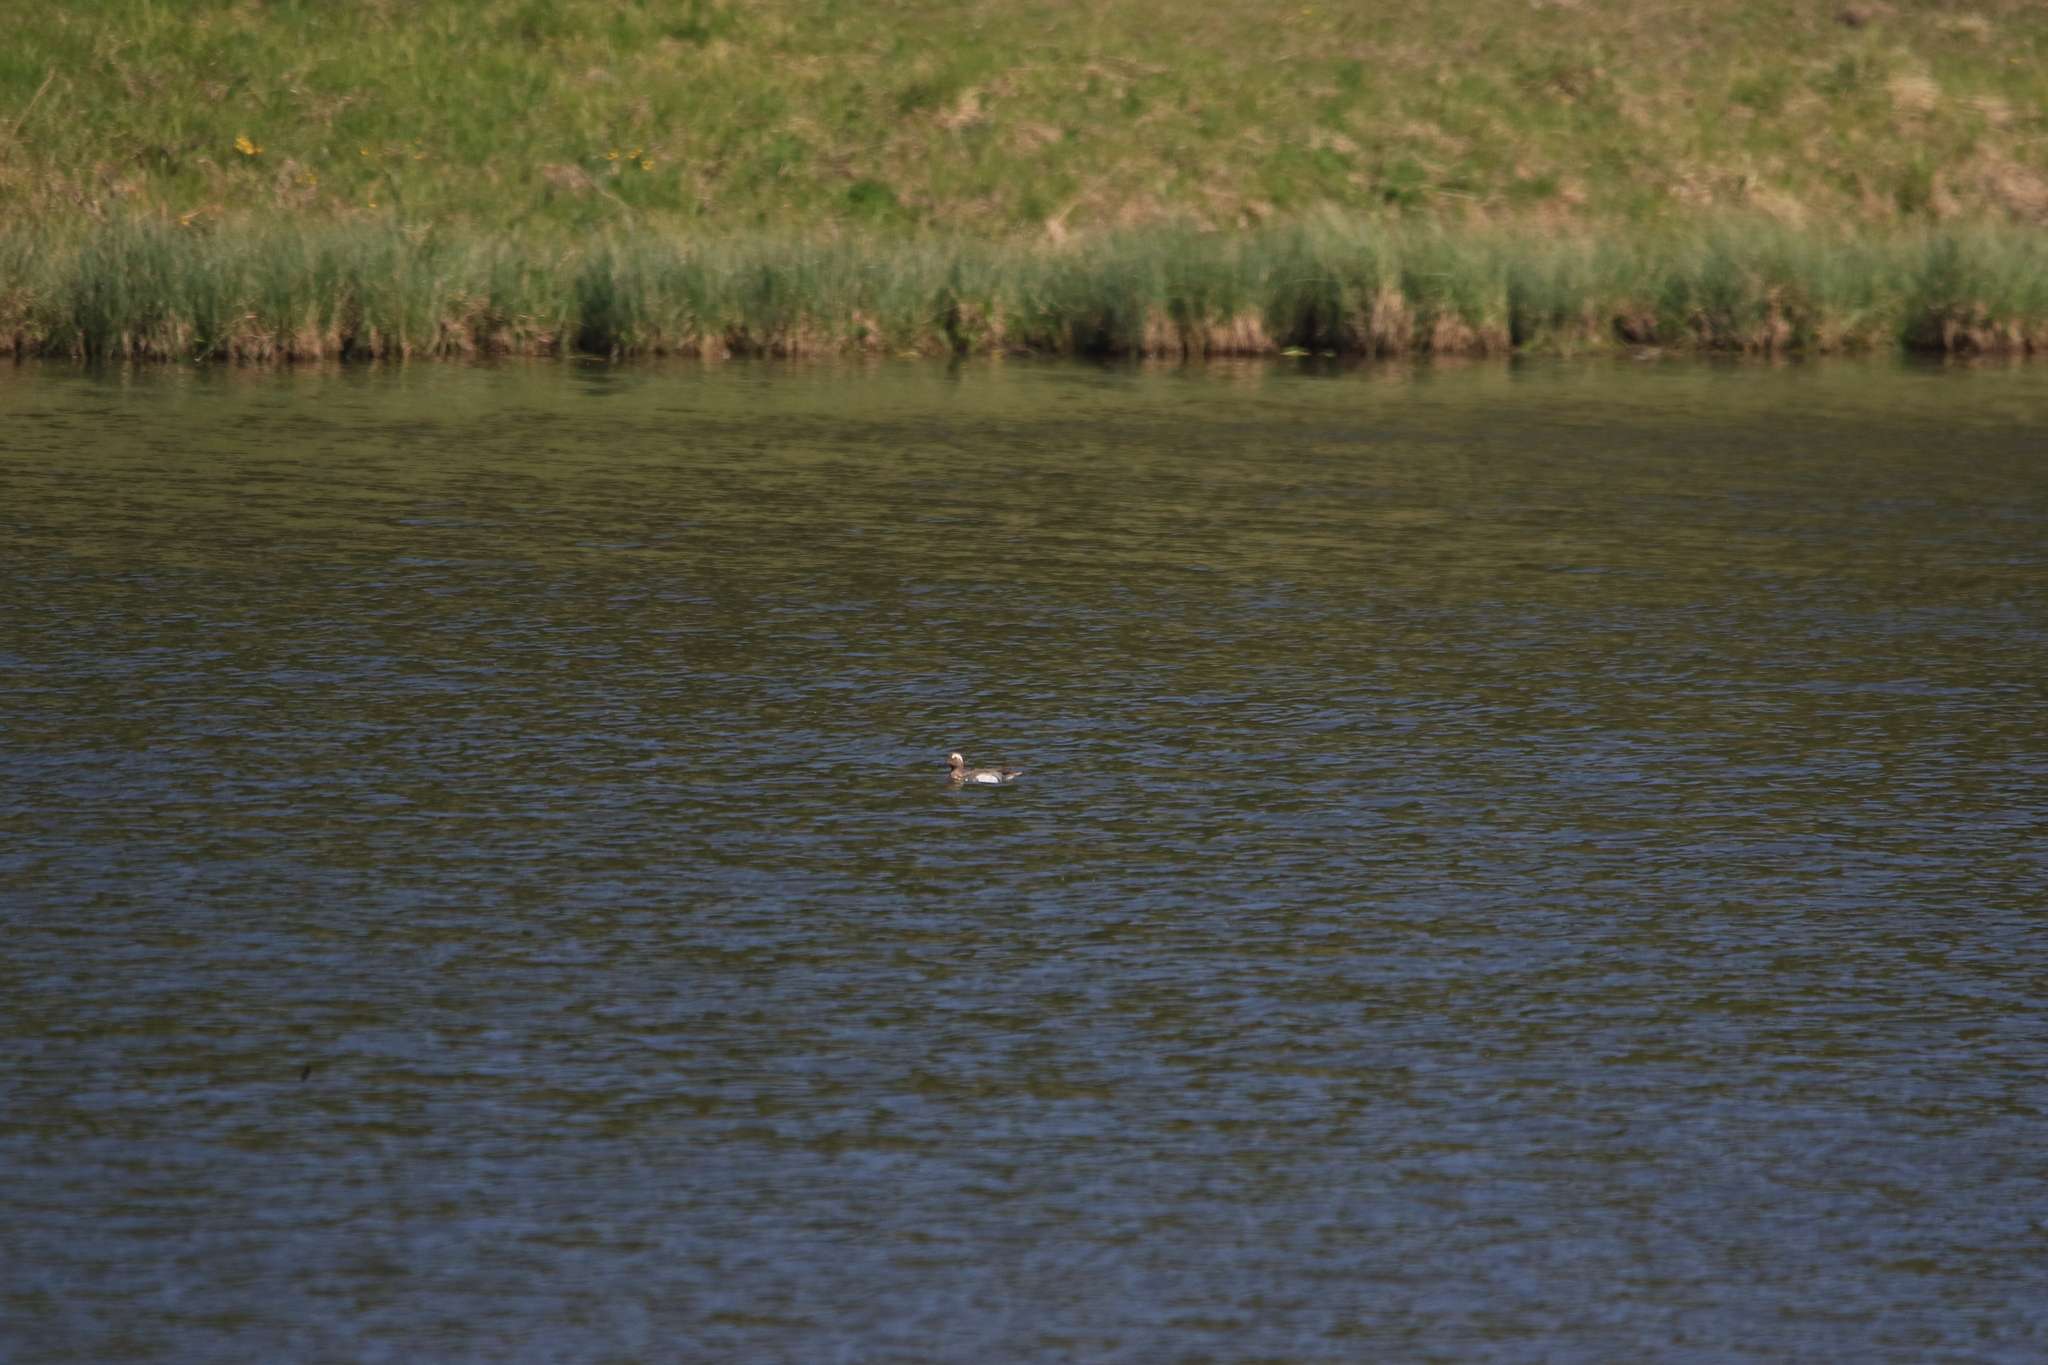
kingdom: Animalia
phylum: Chordata
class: Aves
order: Anseriformes
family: Anatidae
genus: Spatula
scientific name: Spatula querquedula
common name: Garganey
